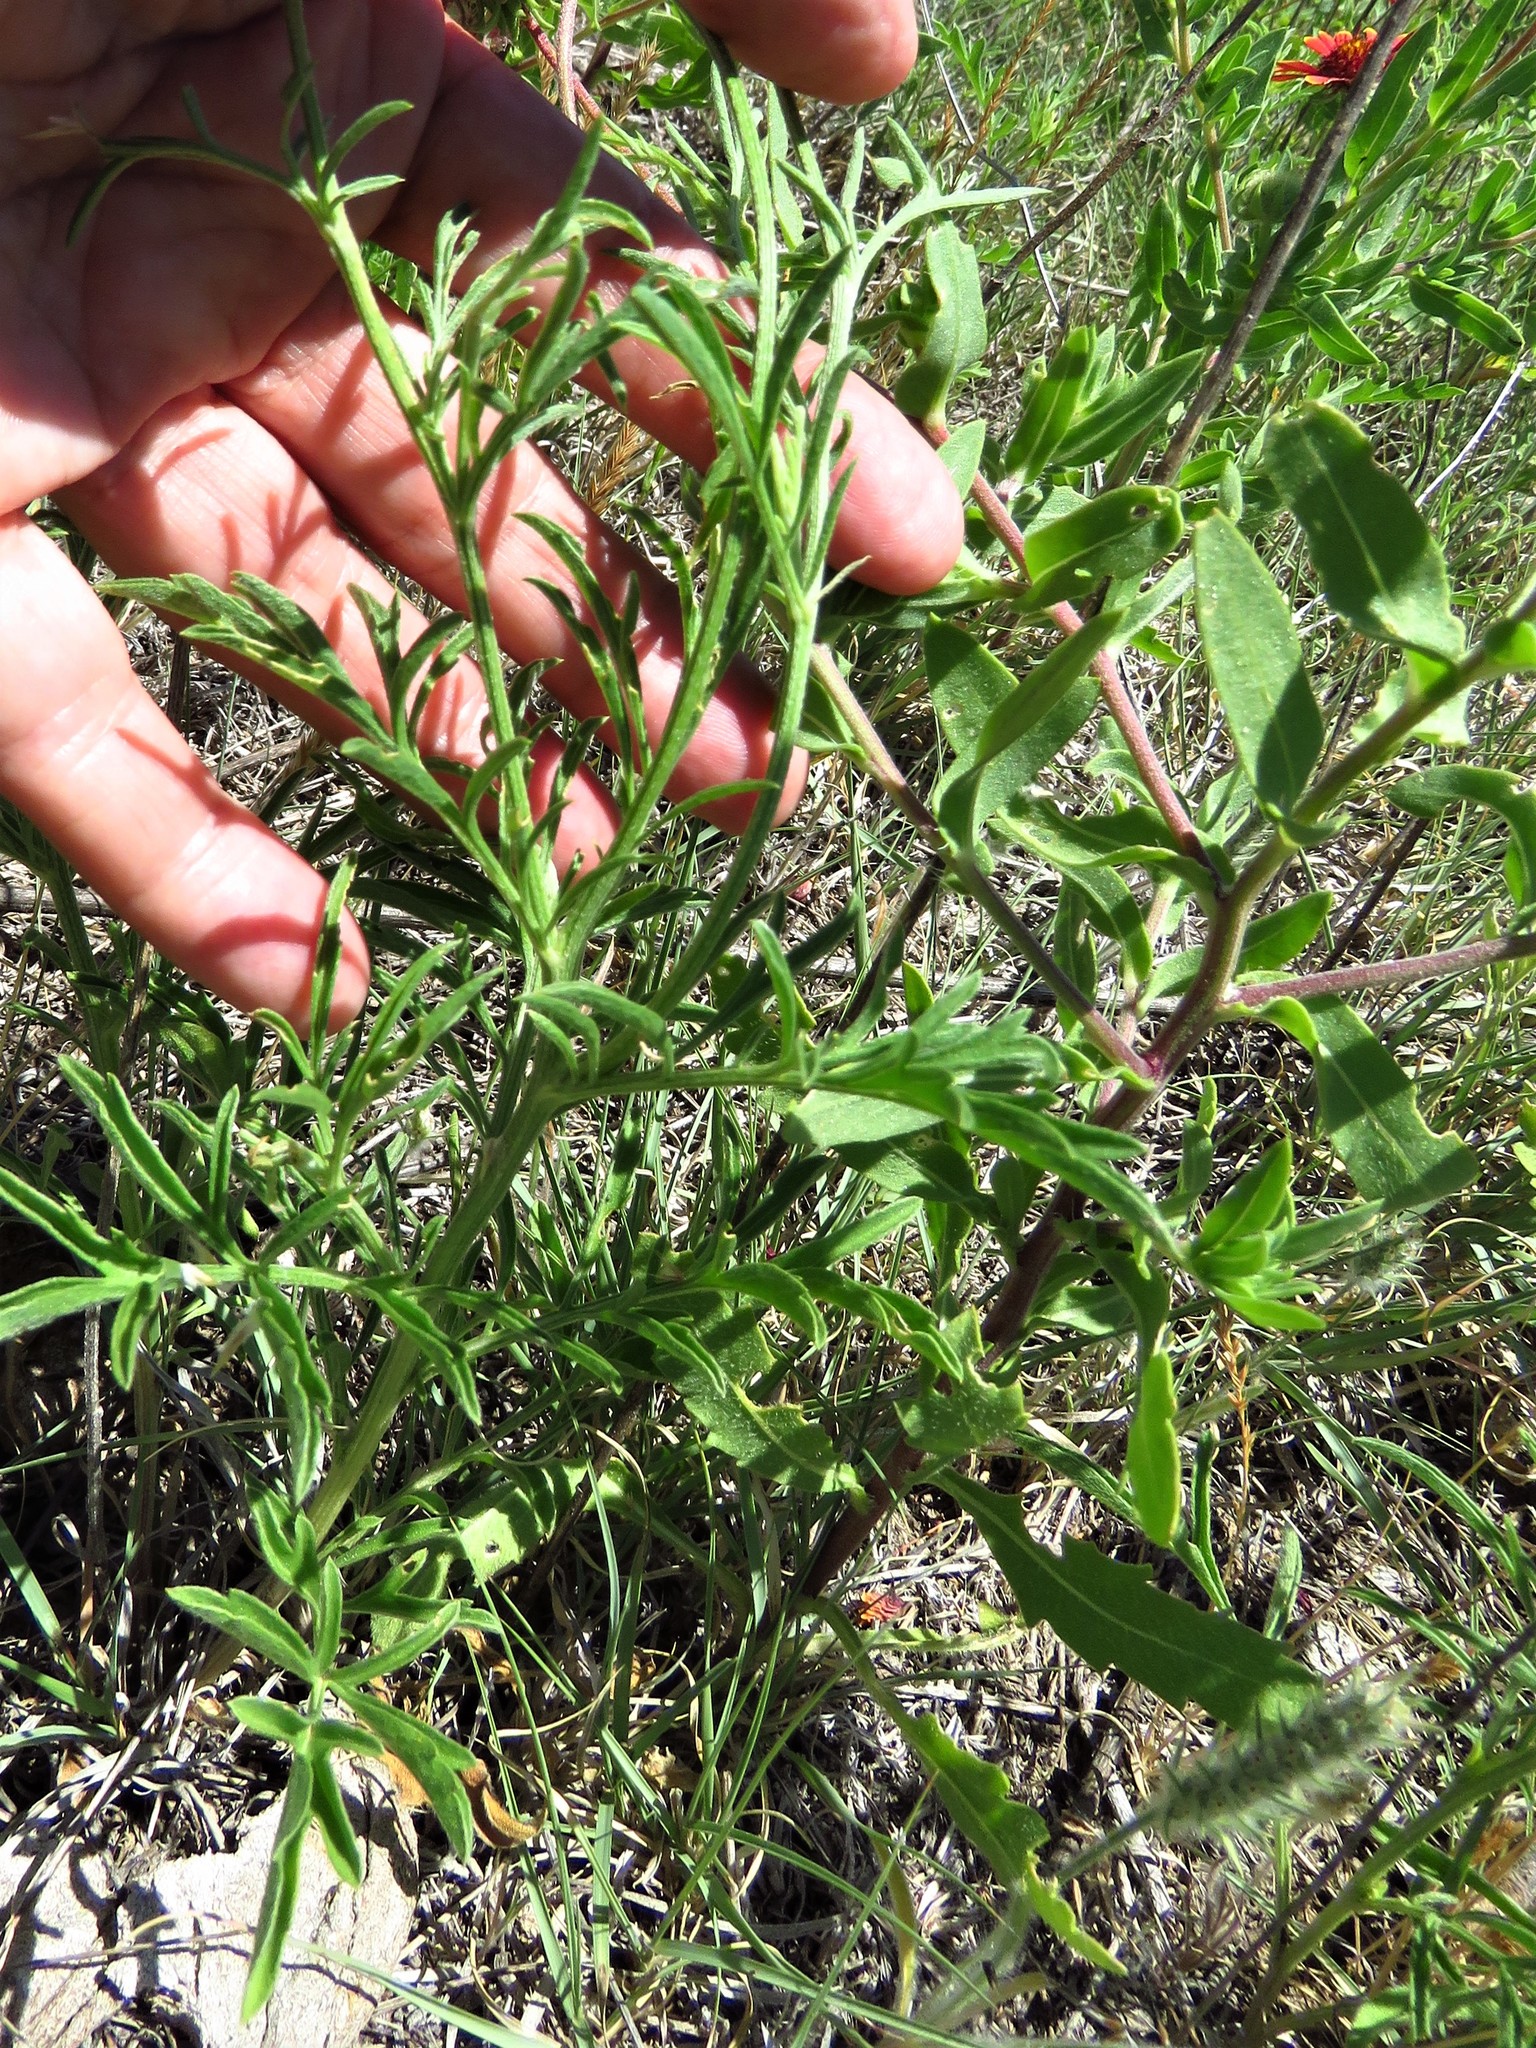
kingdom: Plantae
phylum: Tracheophyta
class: Magnoliopsida
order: Asterales
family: Asteraceae
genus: Ratibida
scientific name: Ratibida columnifera
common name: Prairie coneflower
